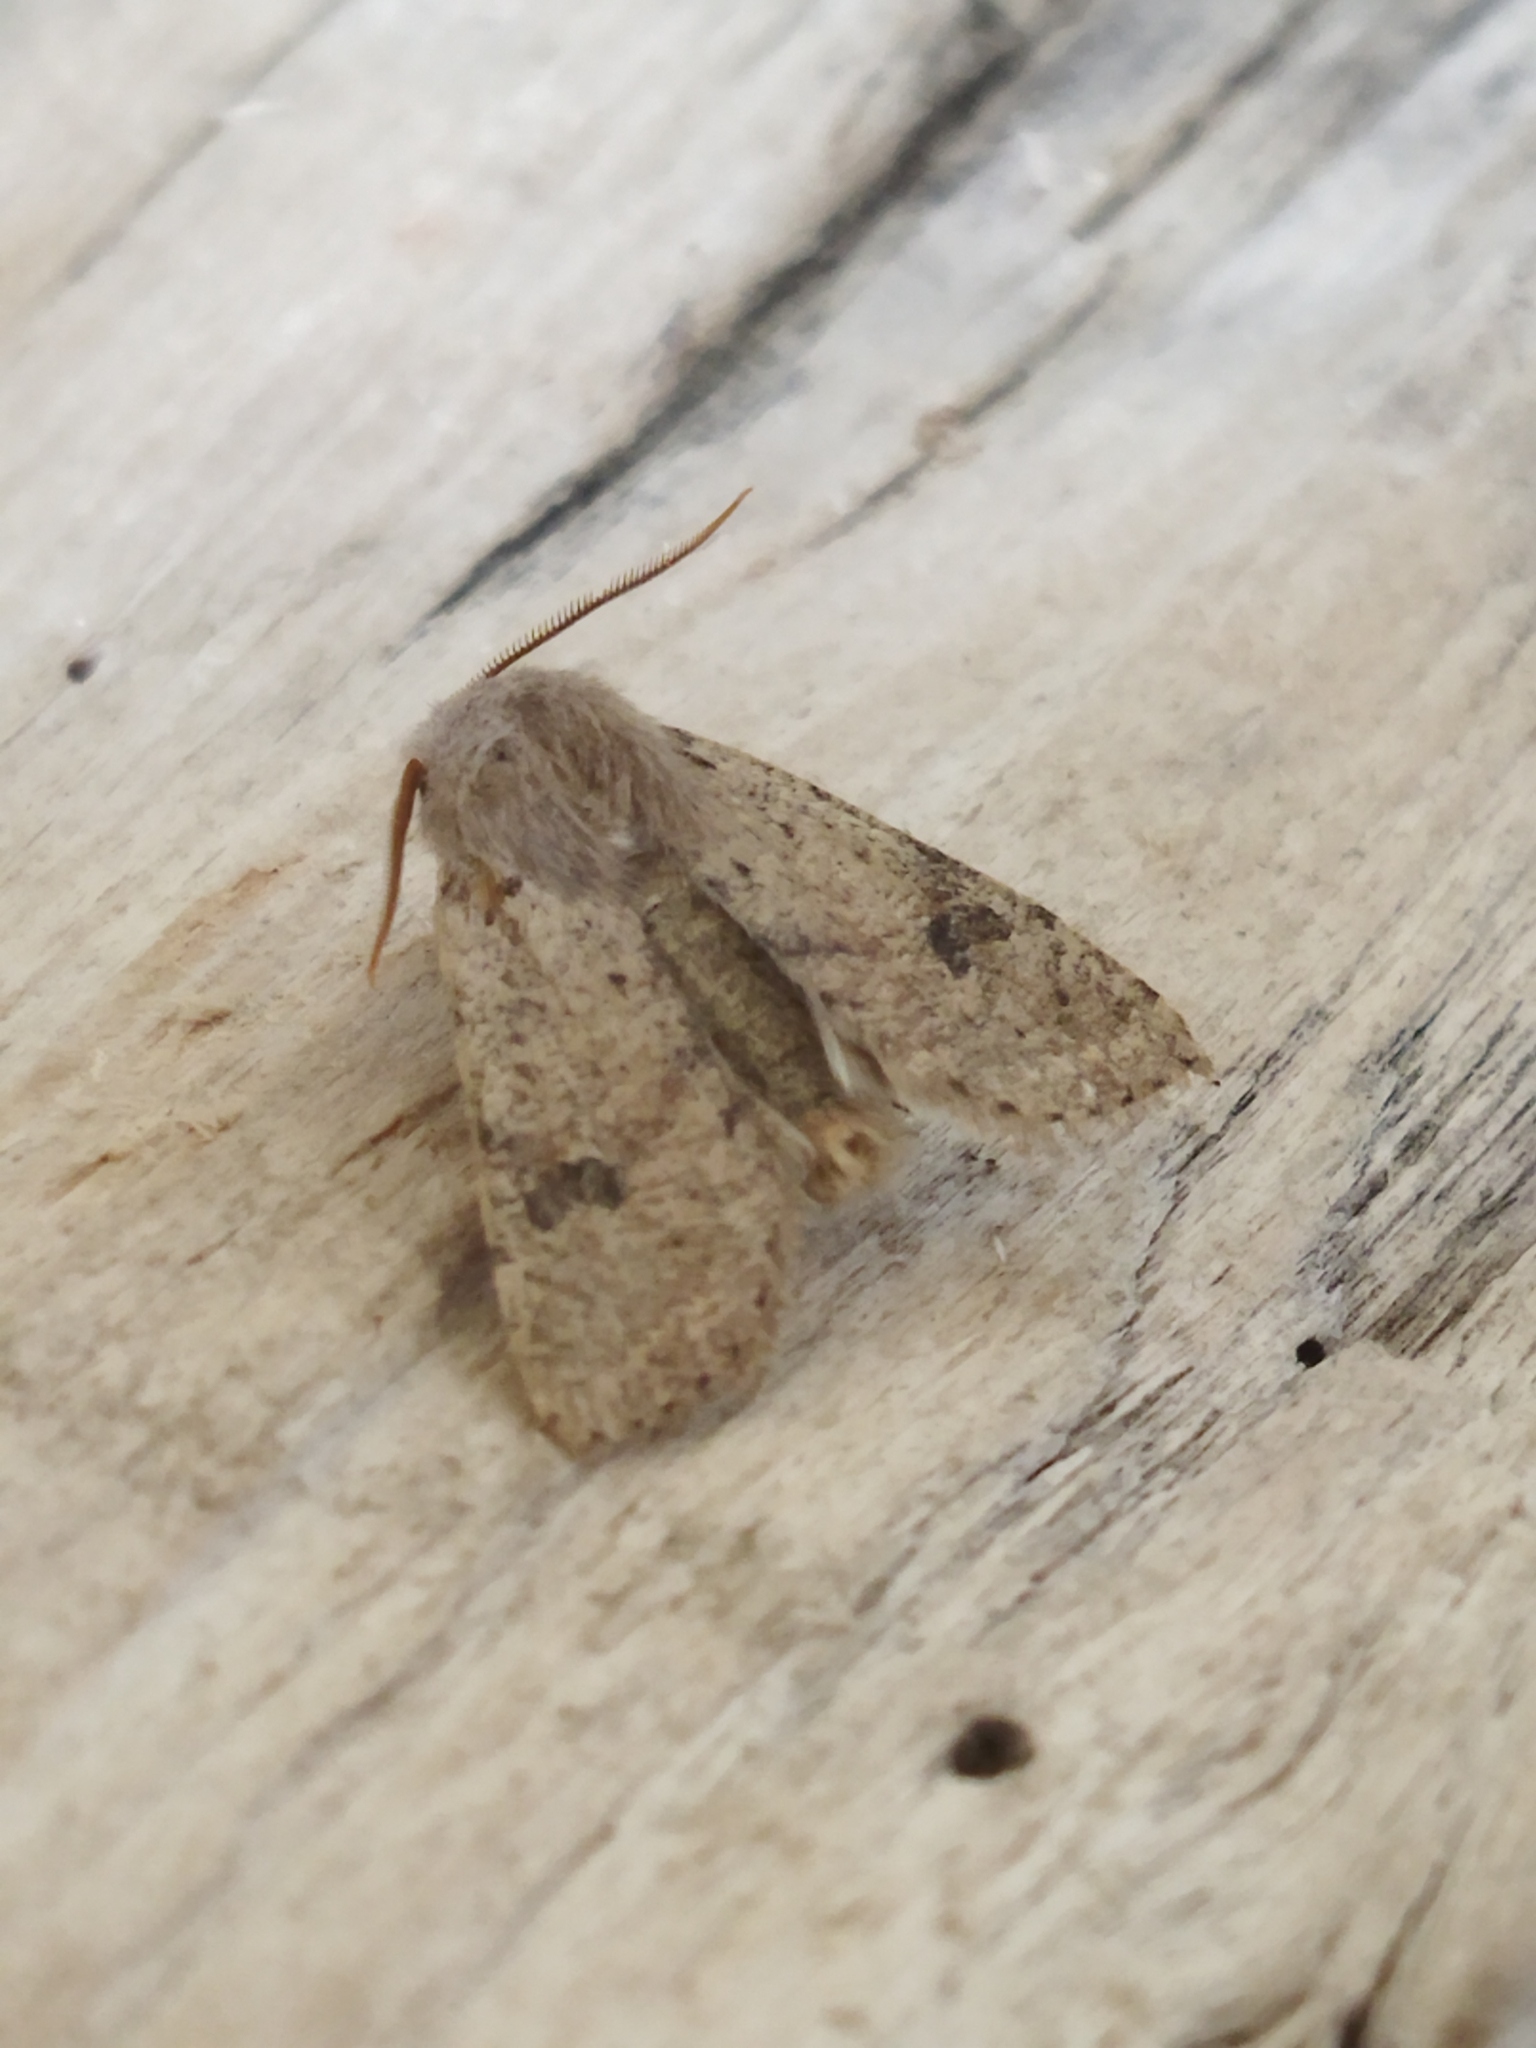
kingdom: Animalia
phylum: Arthropoda
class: Insecta
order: Lepidoptera
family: Noctuidae
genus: Orthosia
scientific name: Orthosia cruda
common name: Small quaker
